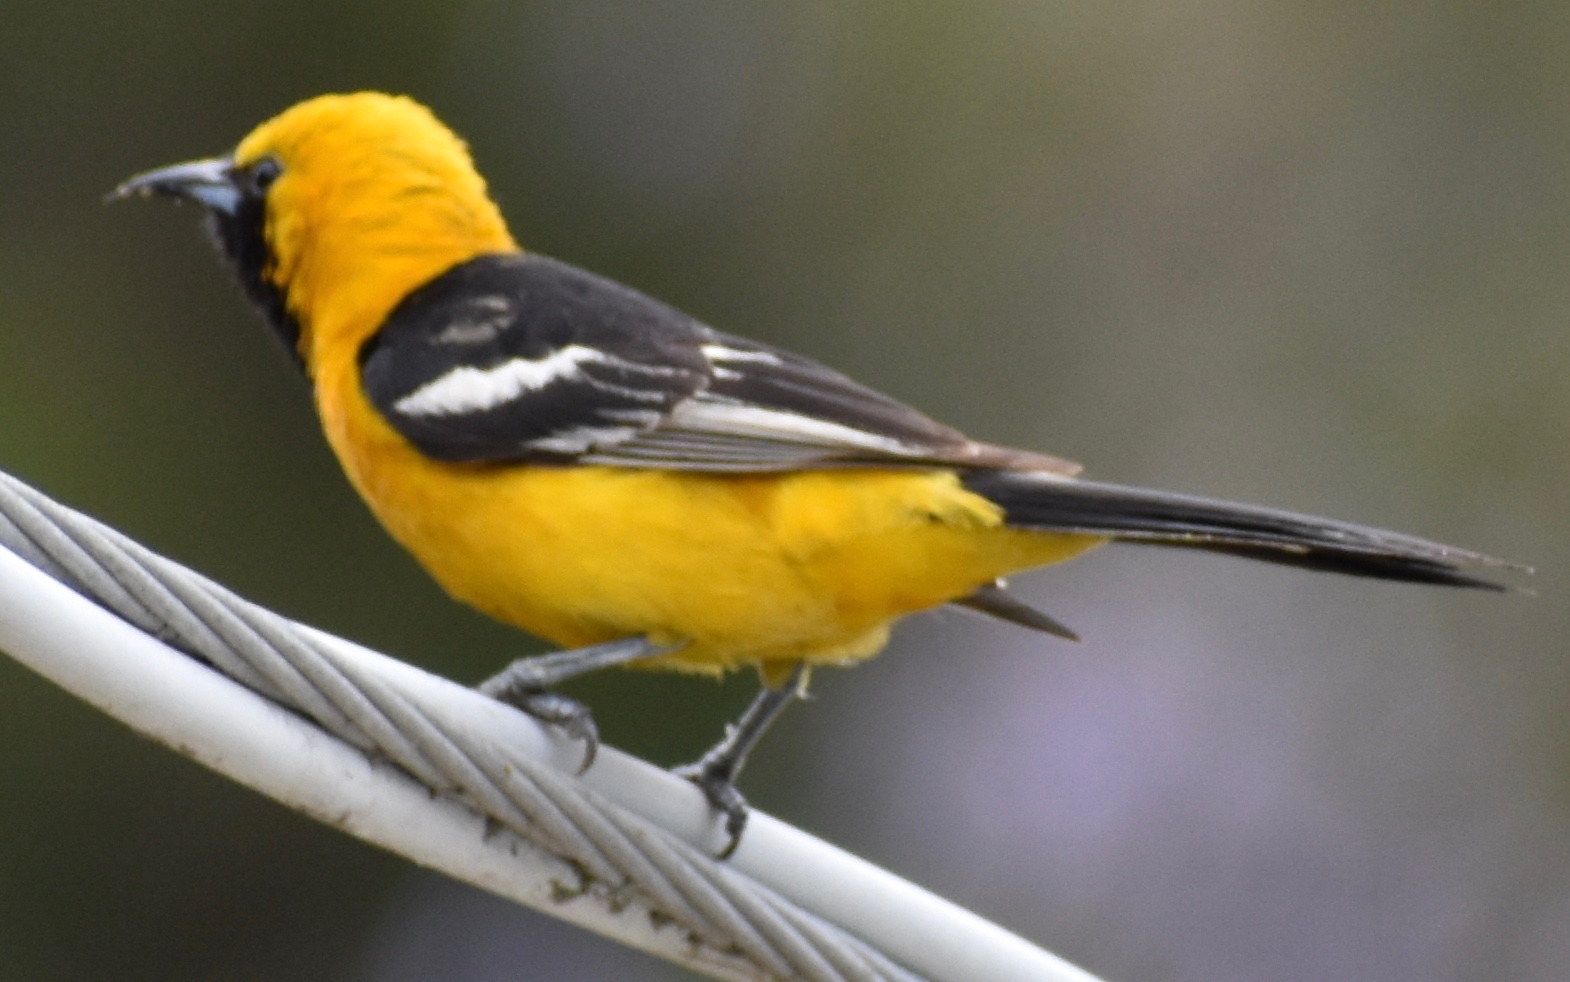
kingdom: Animalia
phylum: Chordata
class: Aves
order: Passeriformes
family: Icteridae
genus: Icterus
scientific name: Icterus cucullatus
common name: Hooded oriole
